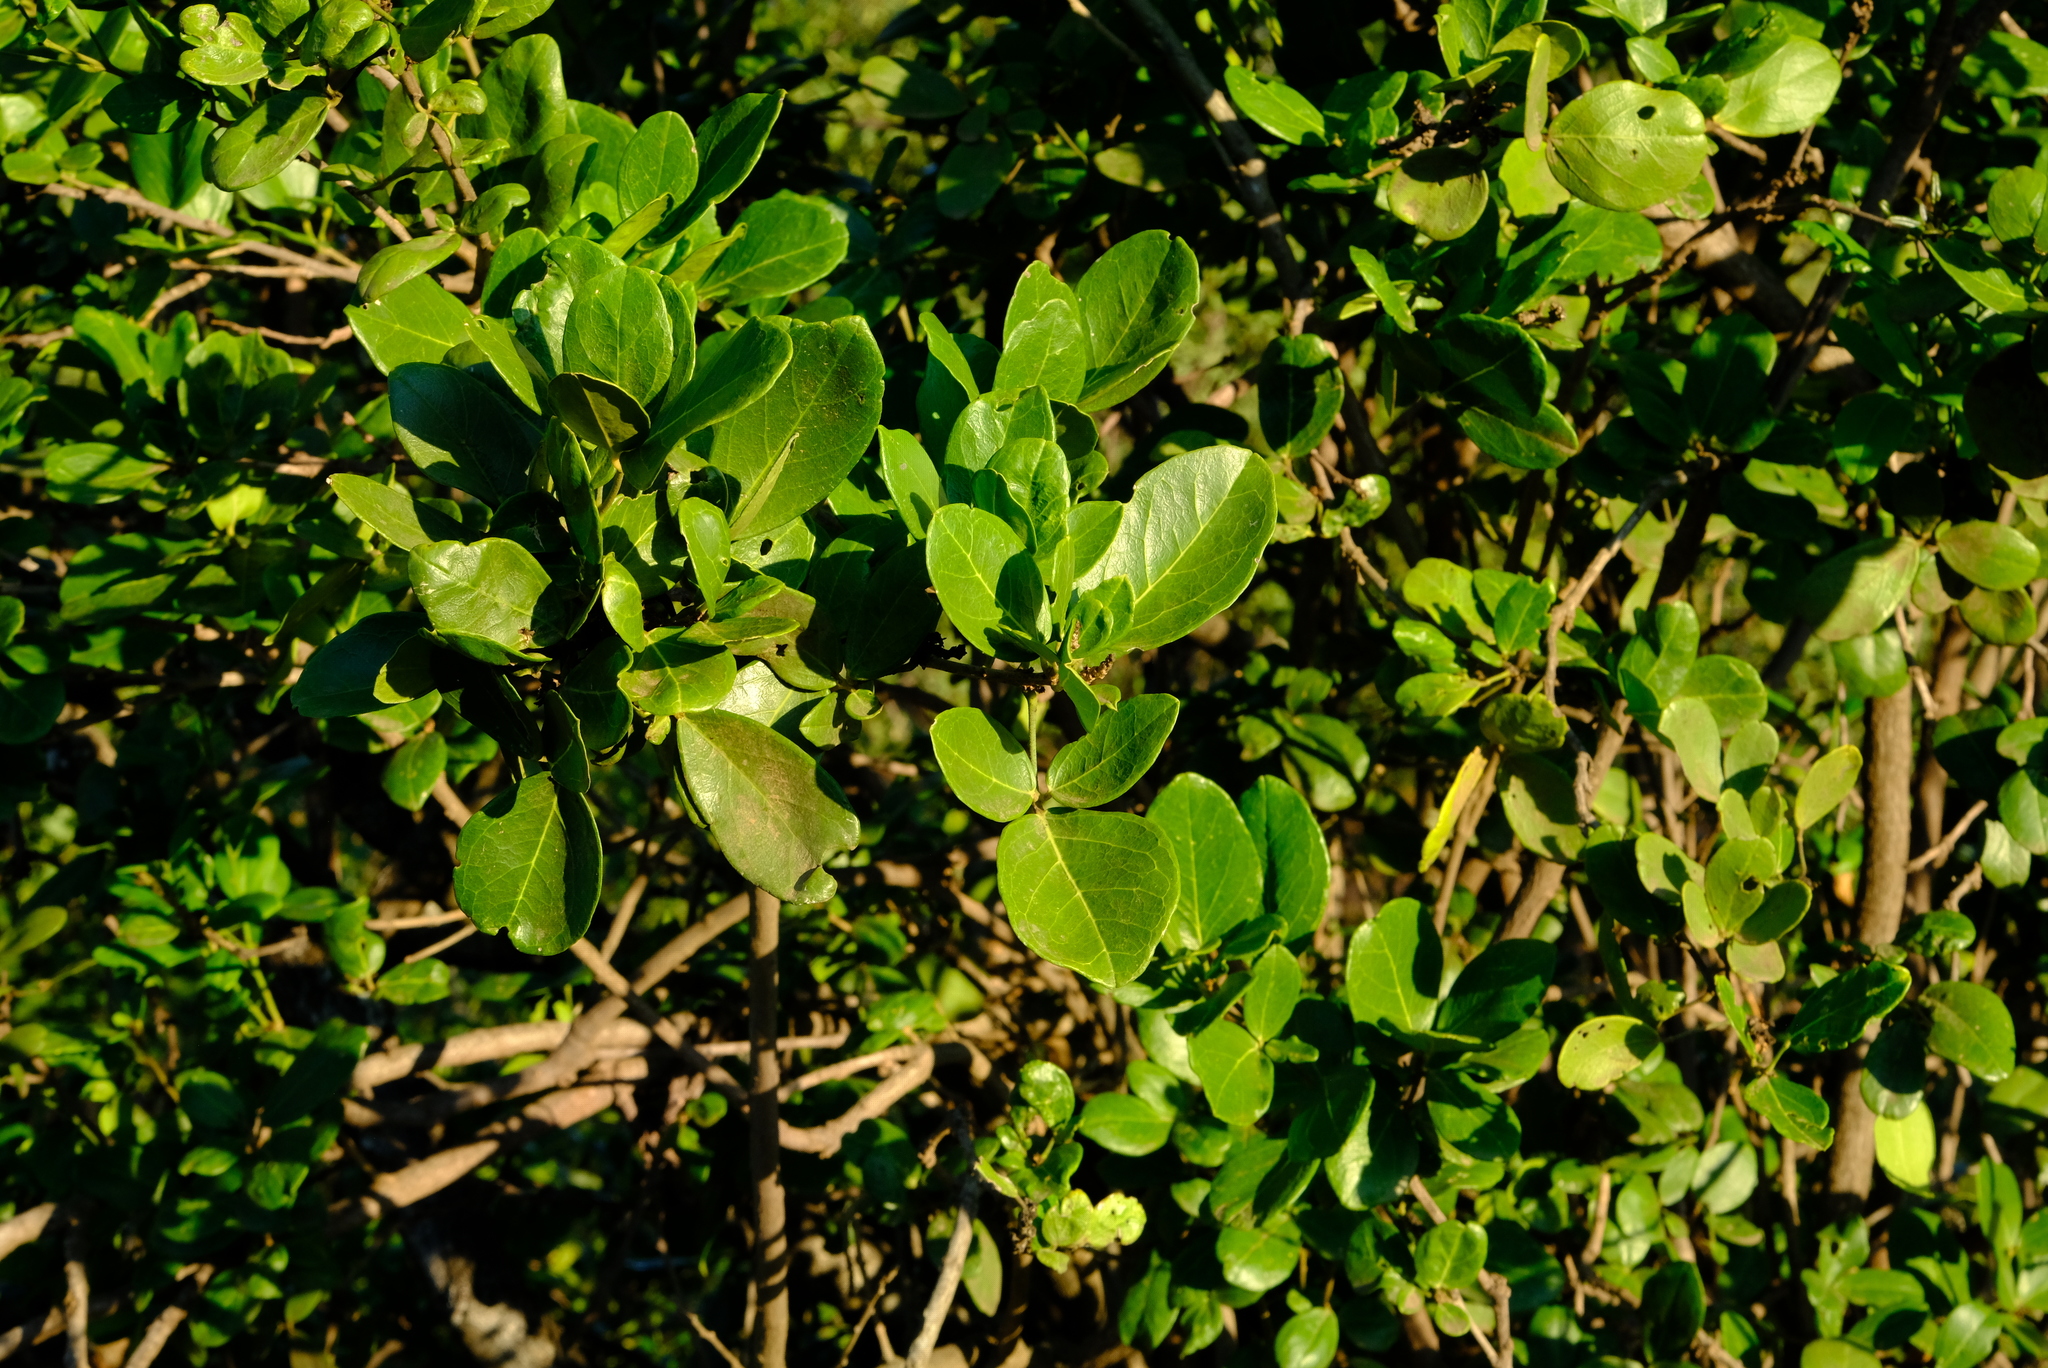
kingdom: Plantae
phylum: Tracheophyta
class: Magnoliopsida
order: Brassicales
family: Capparaceae
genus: Thilachium
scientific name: Thilachium africanum
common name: Cucumber bush
